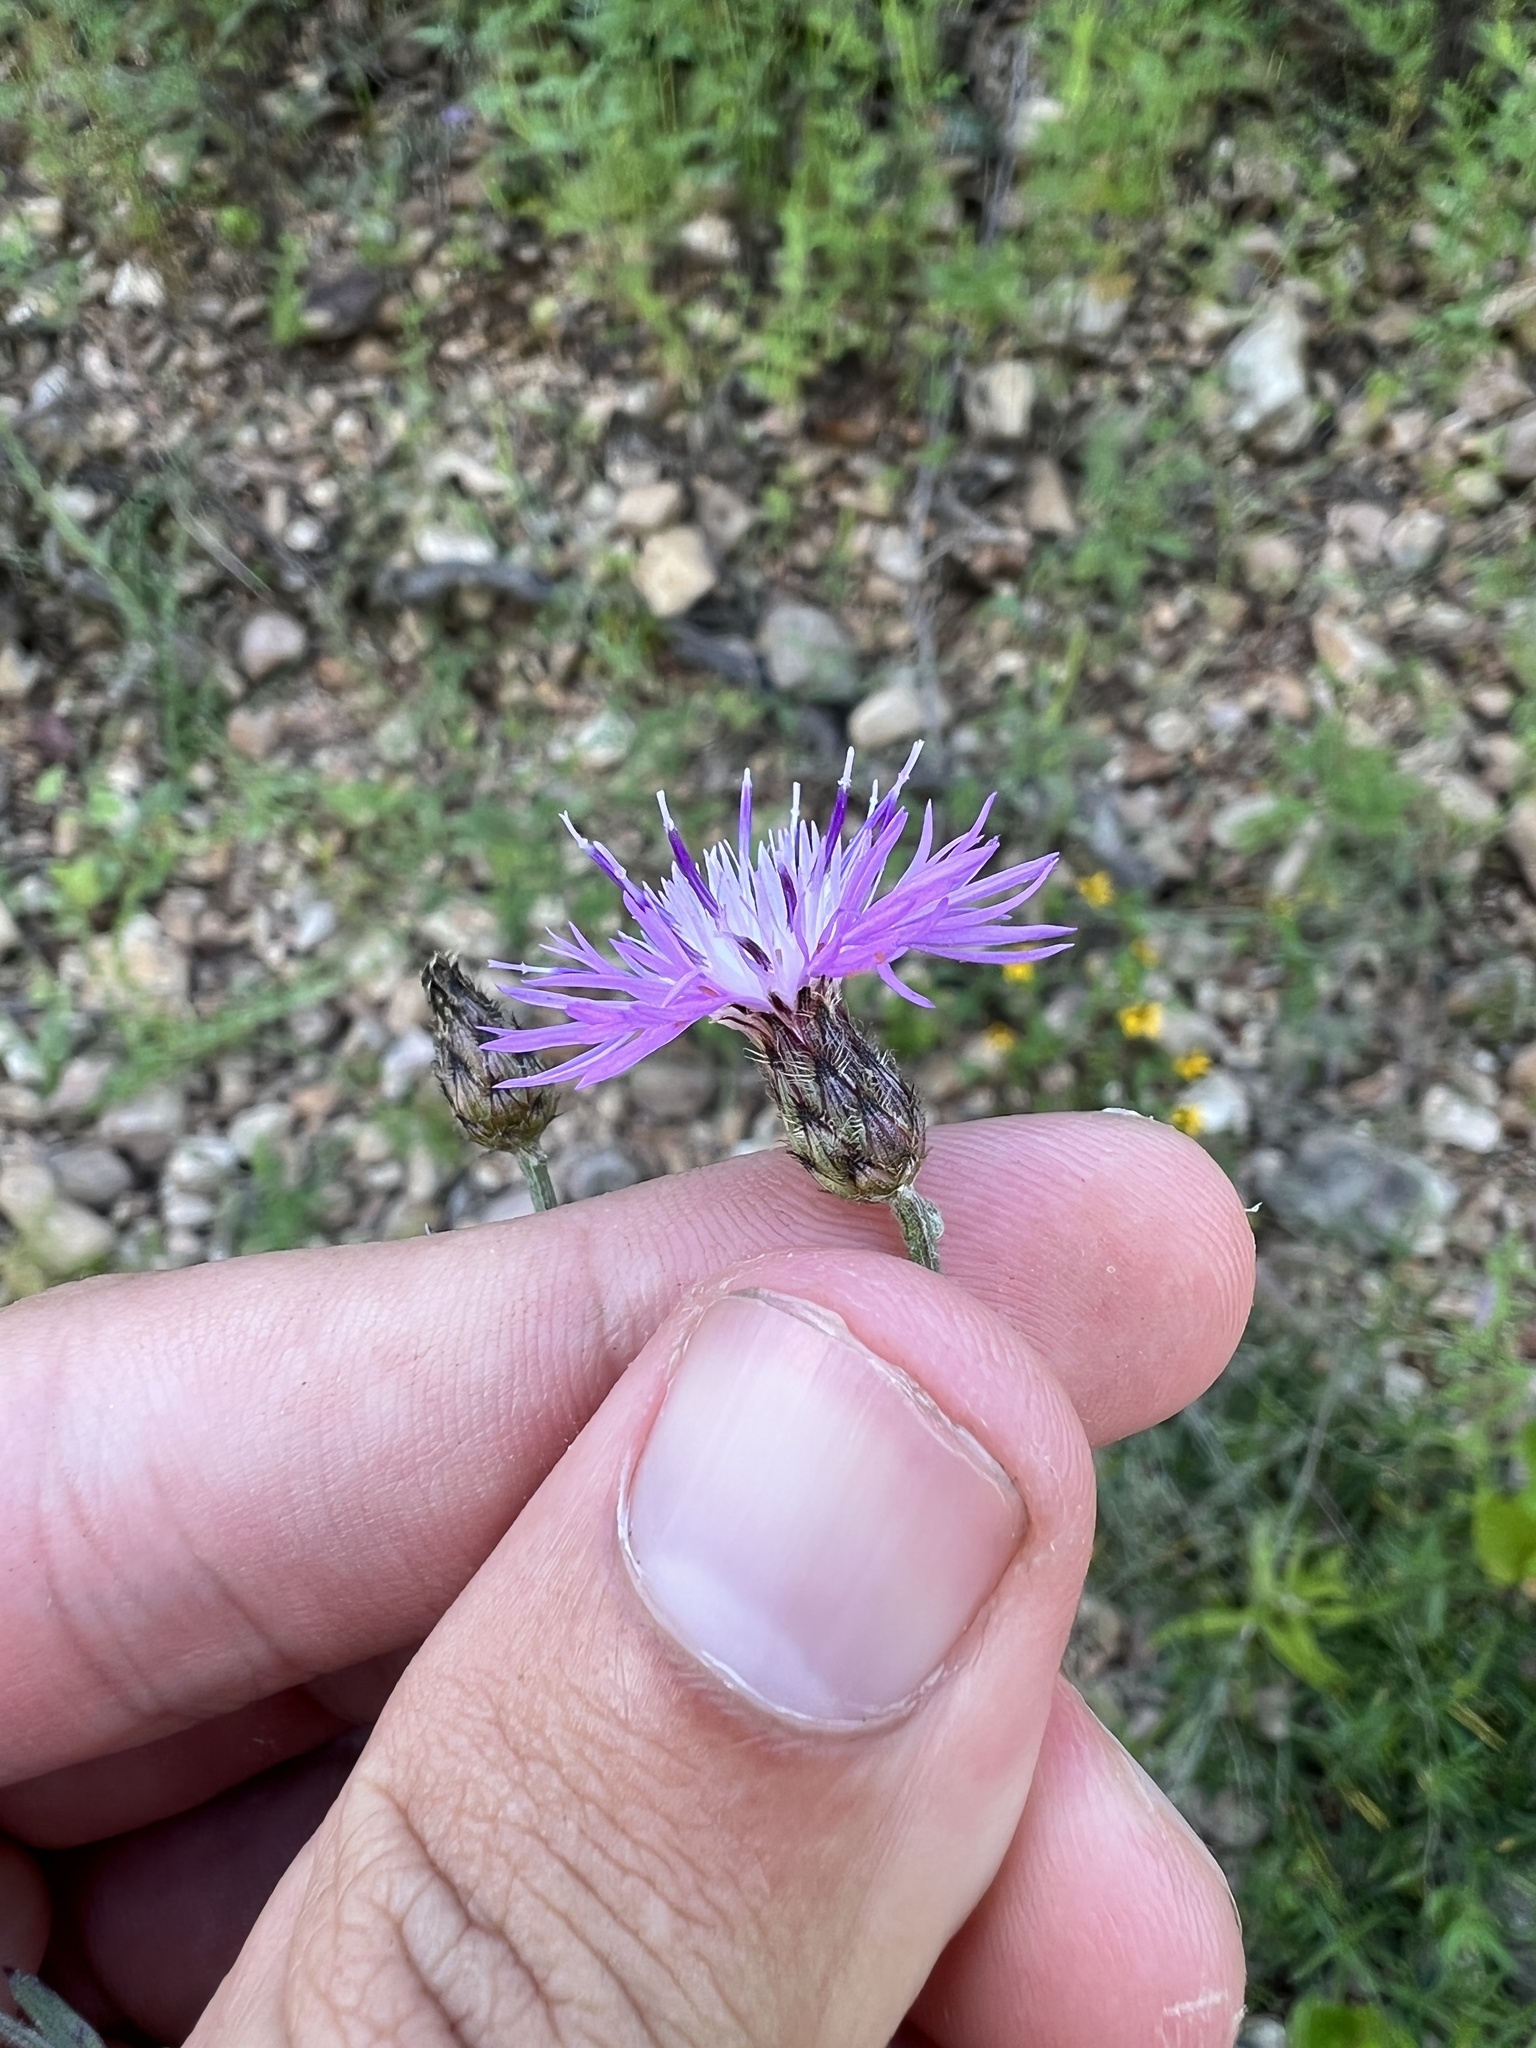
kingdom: Plantae
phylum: Tracheophyta
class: Magnoliopsida
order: Asterales
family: Asteraceae
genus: Centaurea
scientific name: Centaurea stoebe
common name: Spotted knapweed
